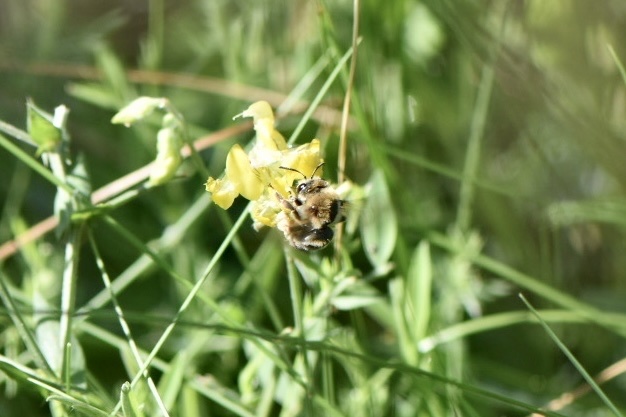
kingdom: Animalia
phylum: Arthropoda
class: Insecta
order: Hymenoptera
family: Apidae
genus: Eucera
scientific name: Eucera longicornis
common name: Long-horned bee
